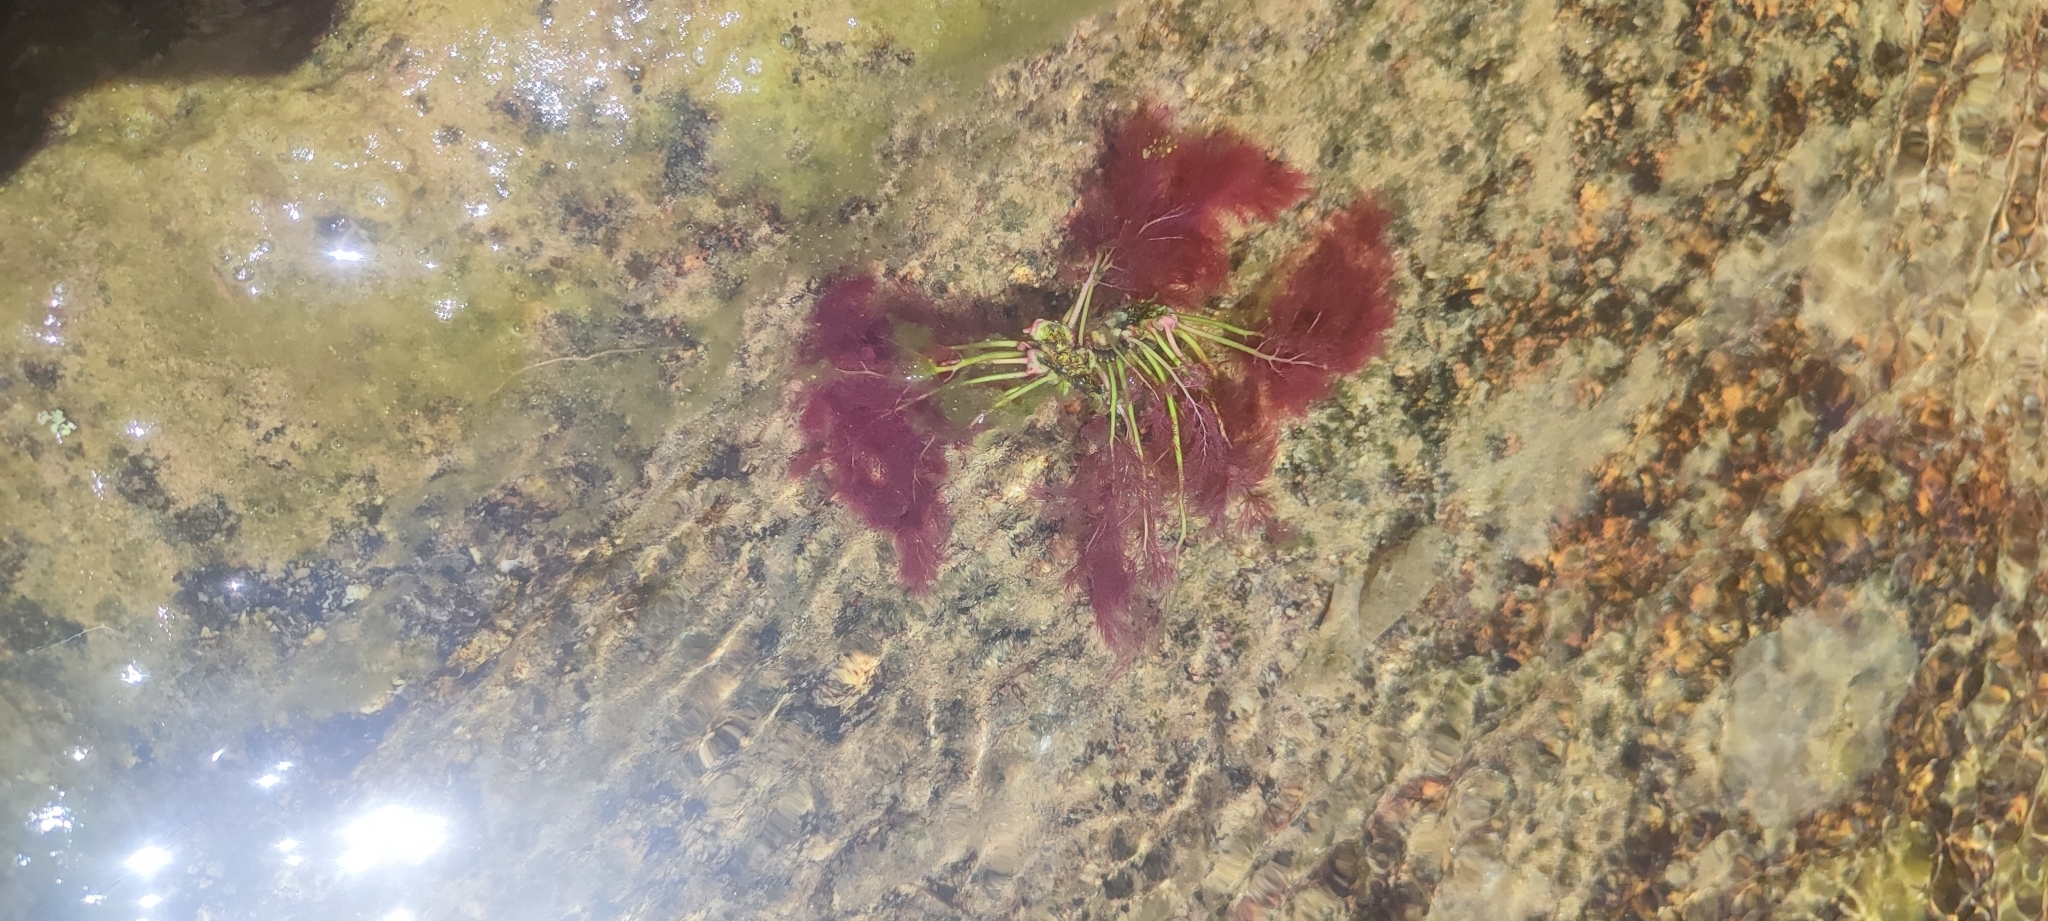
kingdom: Plantae
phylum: Tracheophyta
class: Magnoliopsida
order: Malpighiales
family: Podostemaceae
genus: Marathrum
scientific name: Marathrum foeniculaceum
